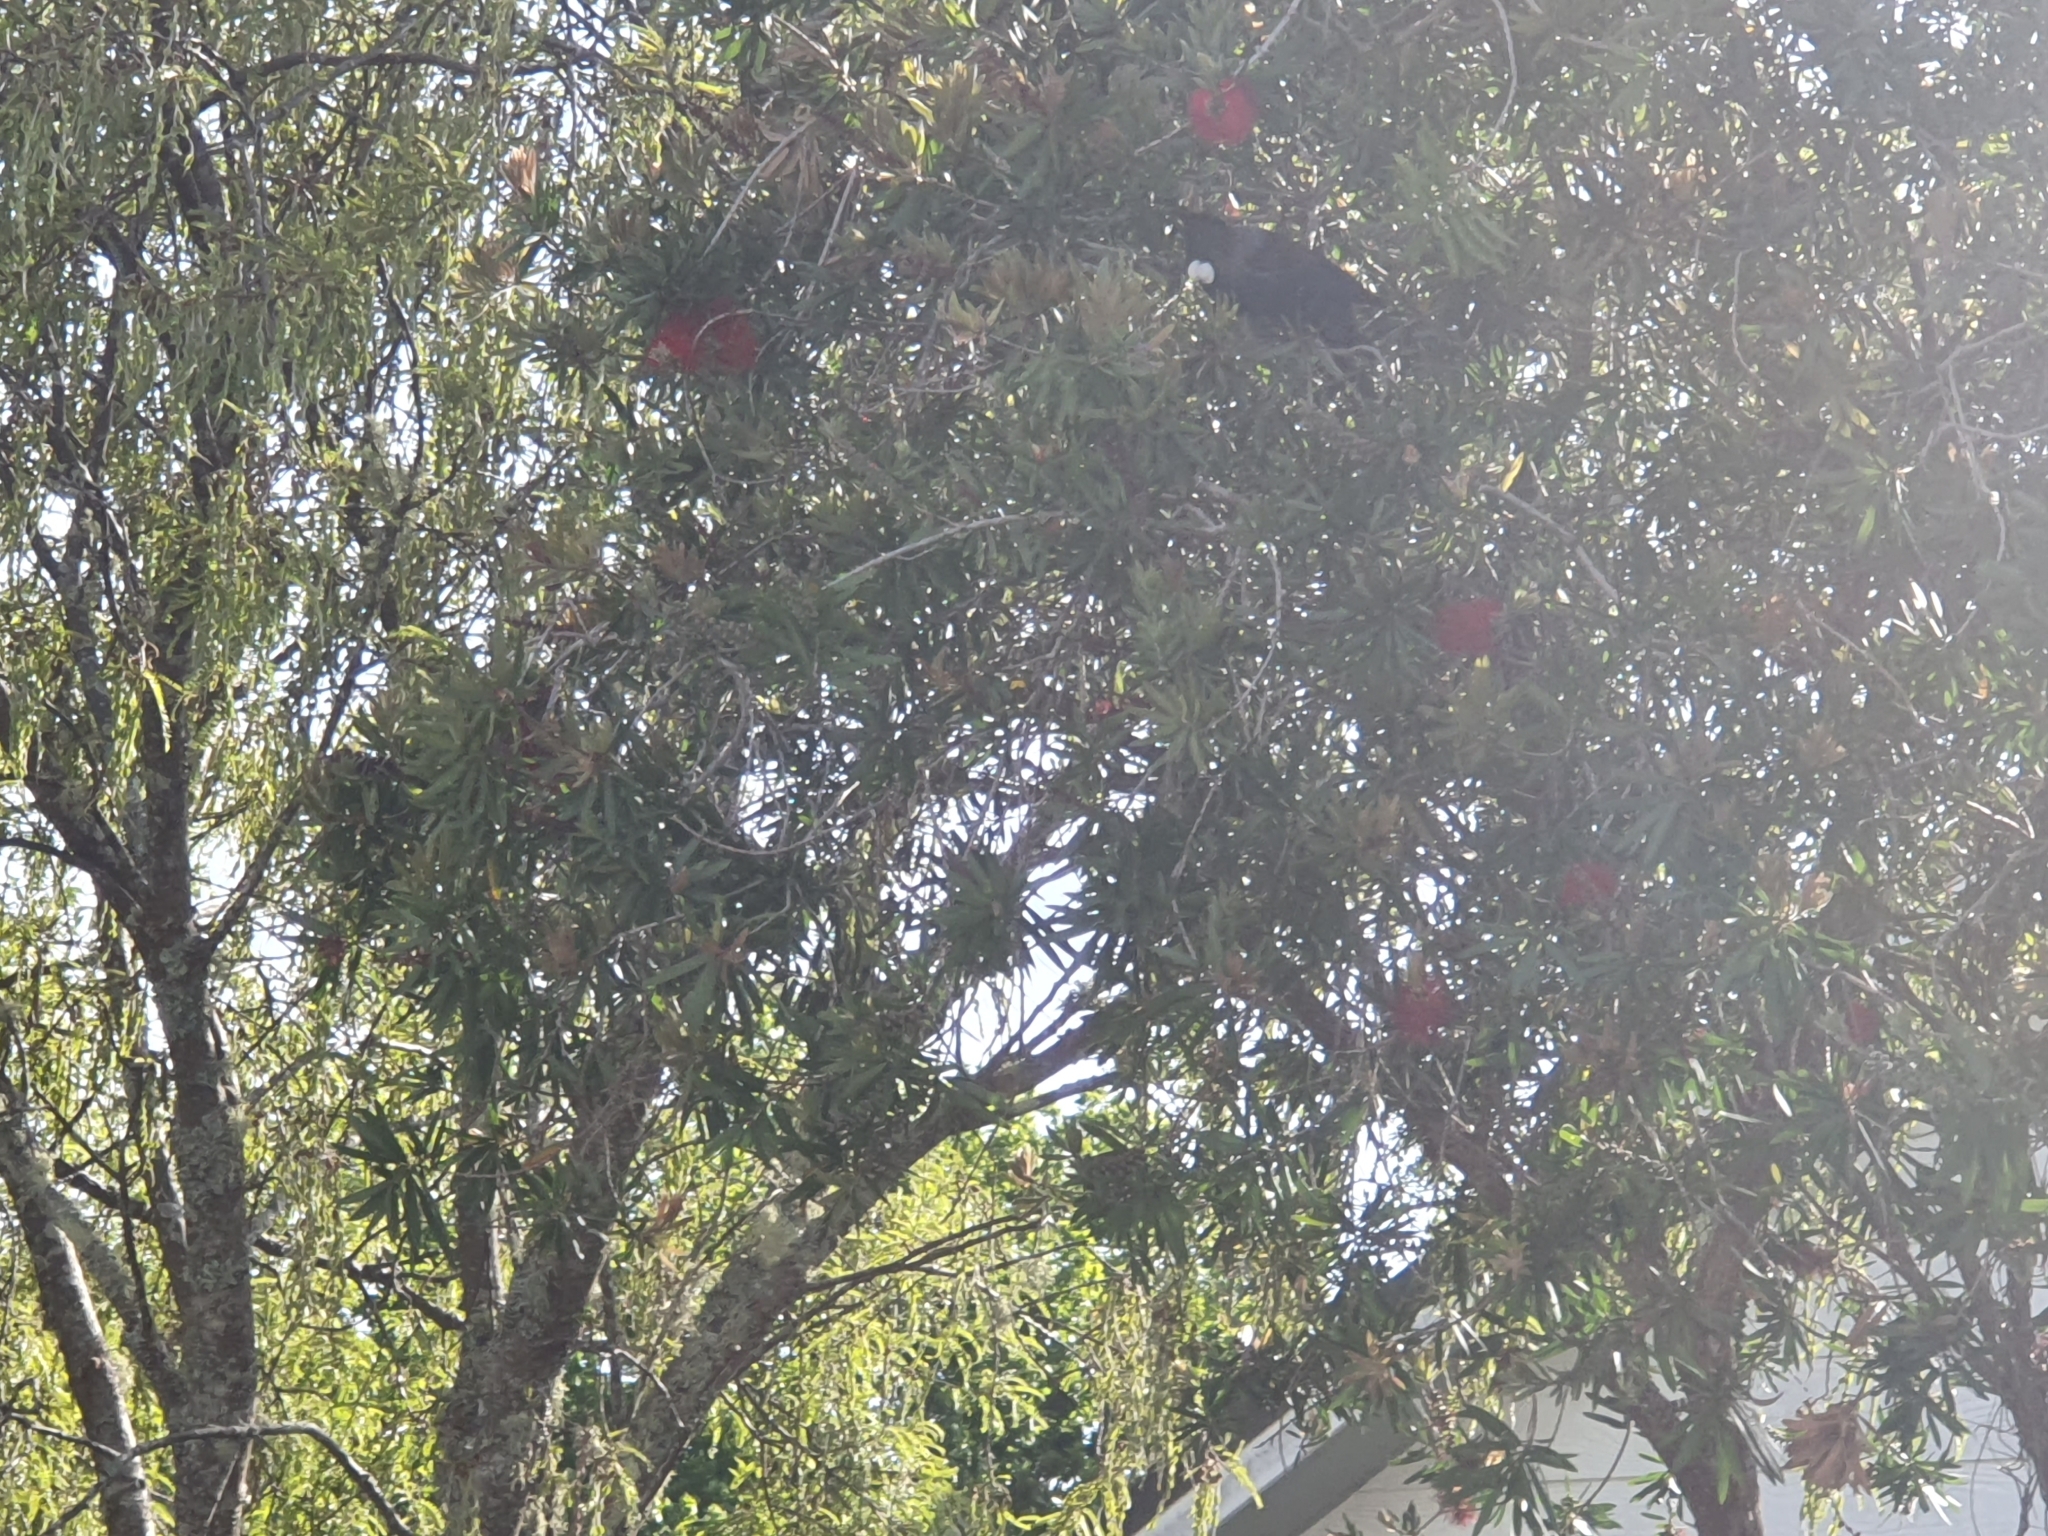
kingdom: Animalia
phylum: Chordata
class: Aves
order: Passeriformes
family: Meliphagidae
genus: Prosthemadera
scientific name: Prosthemadera novaeseelandiae
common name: Tui
